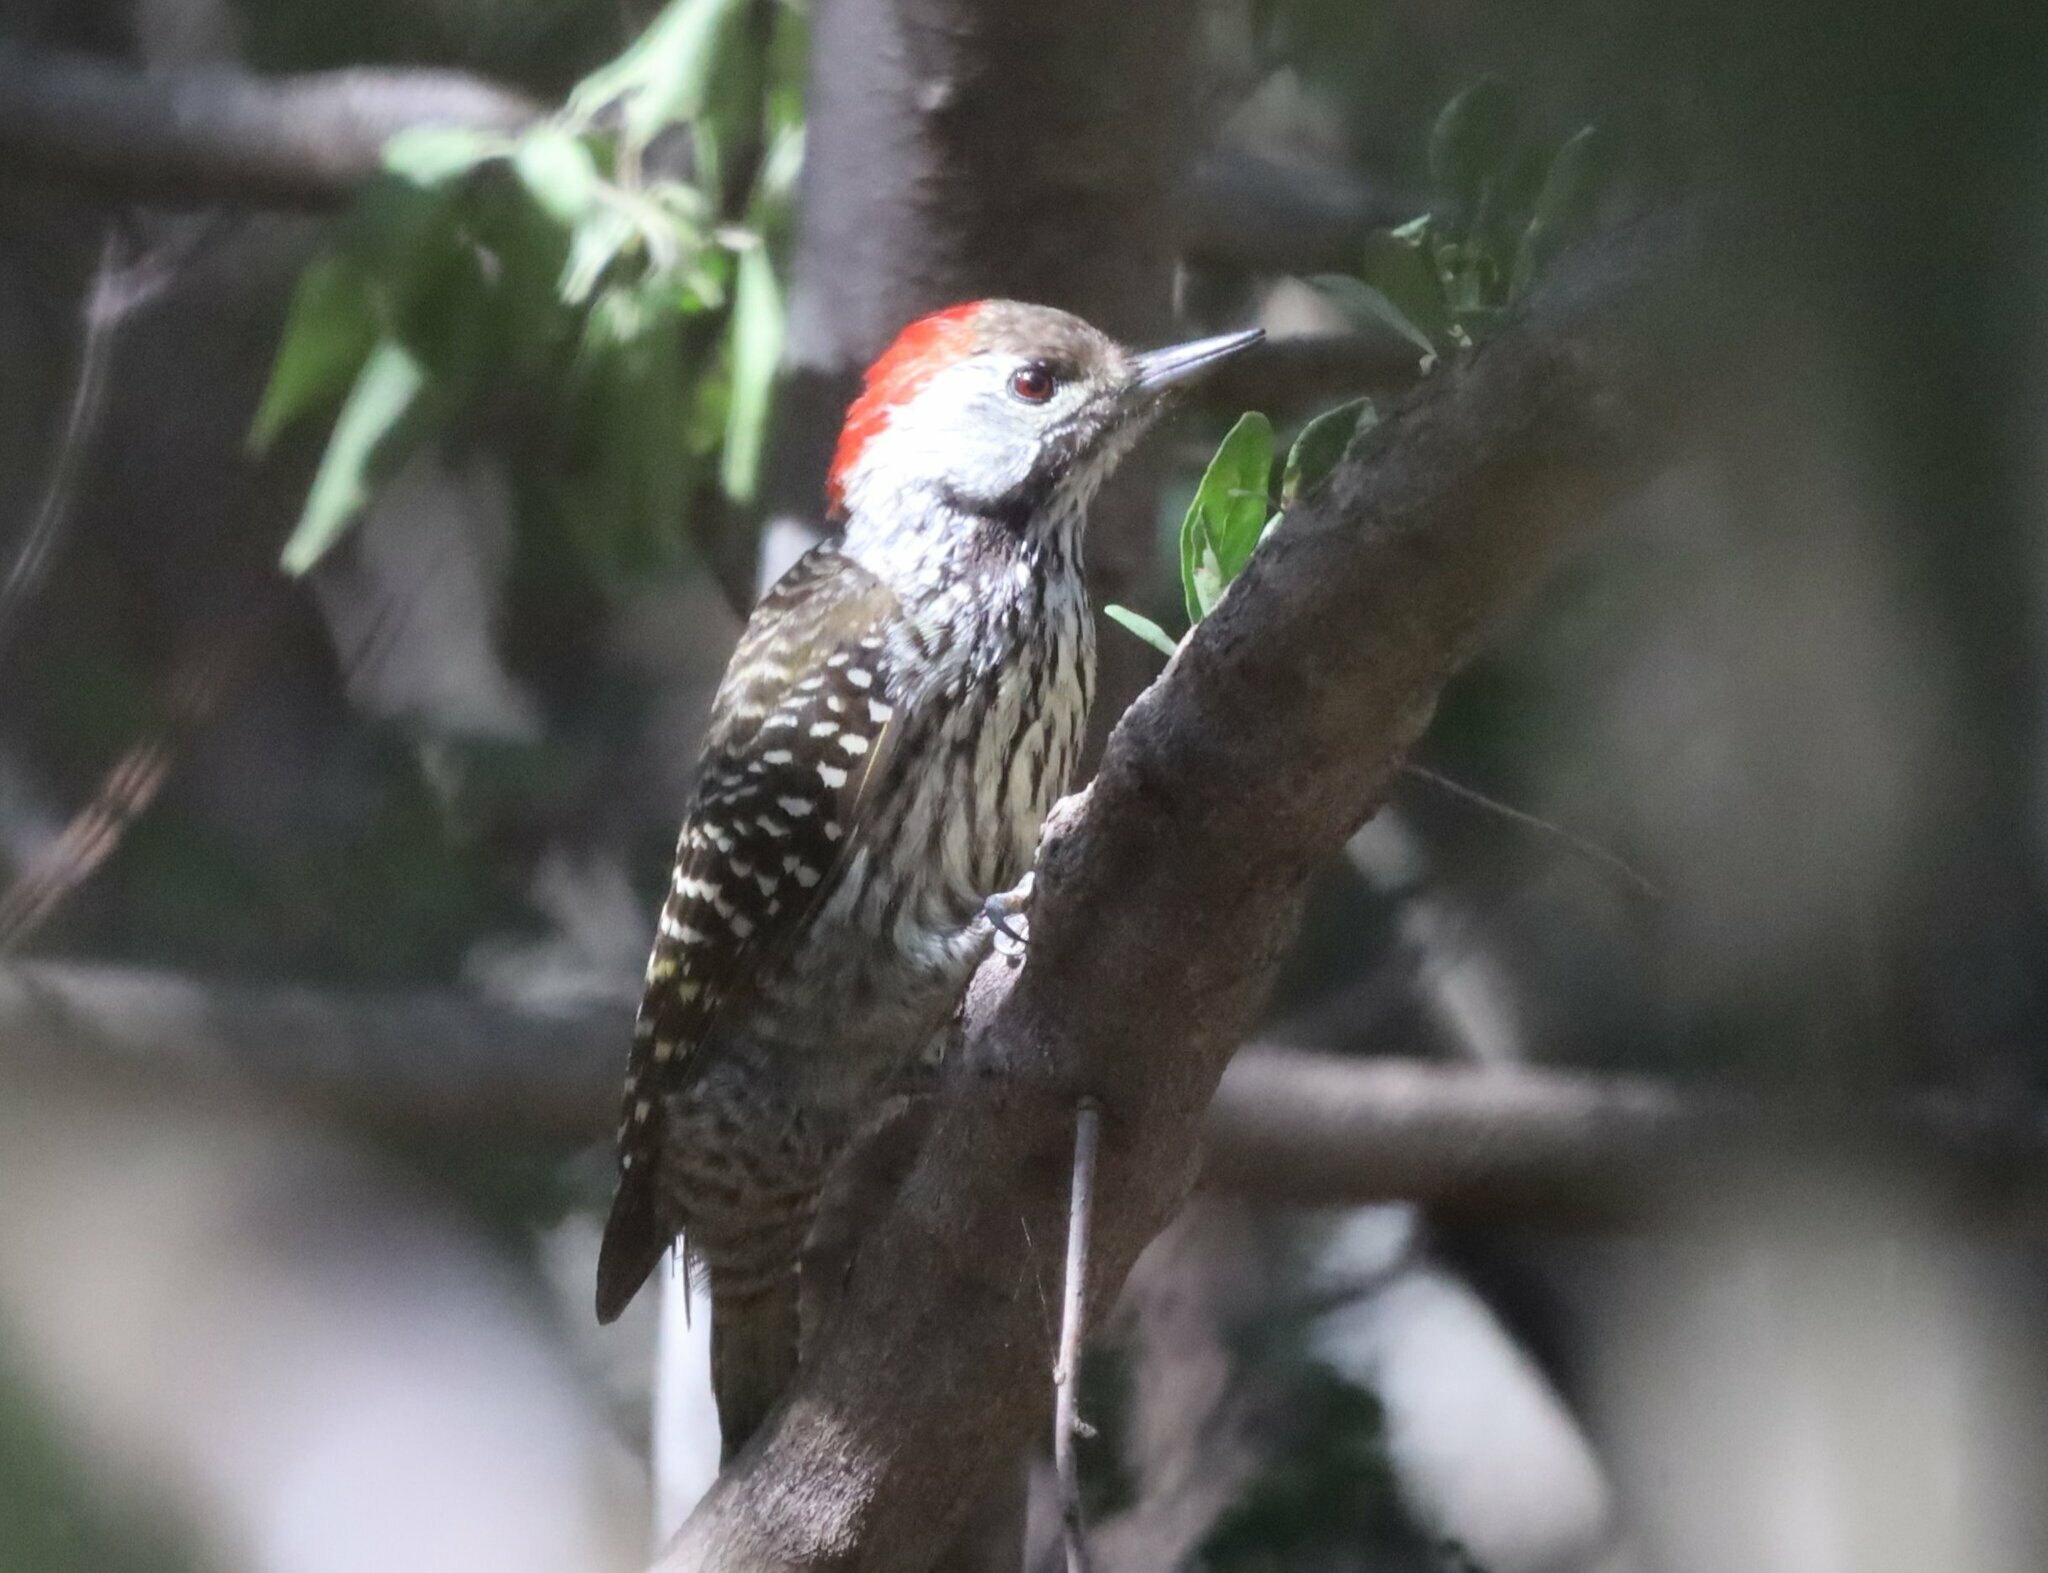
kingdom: Animalia
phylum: Chordata
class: Aves
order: Piciformes
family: Picidae
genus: Dendropicos
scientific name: Dendropicos fuscescens
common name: Cardinal woodpecker
